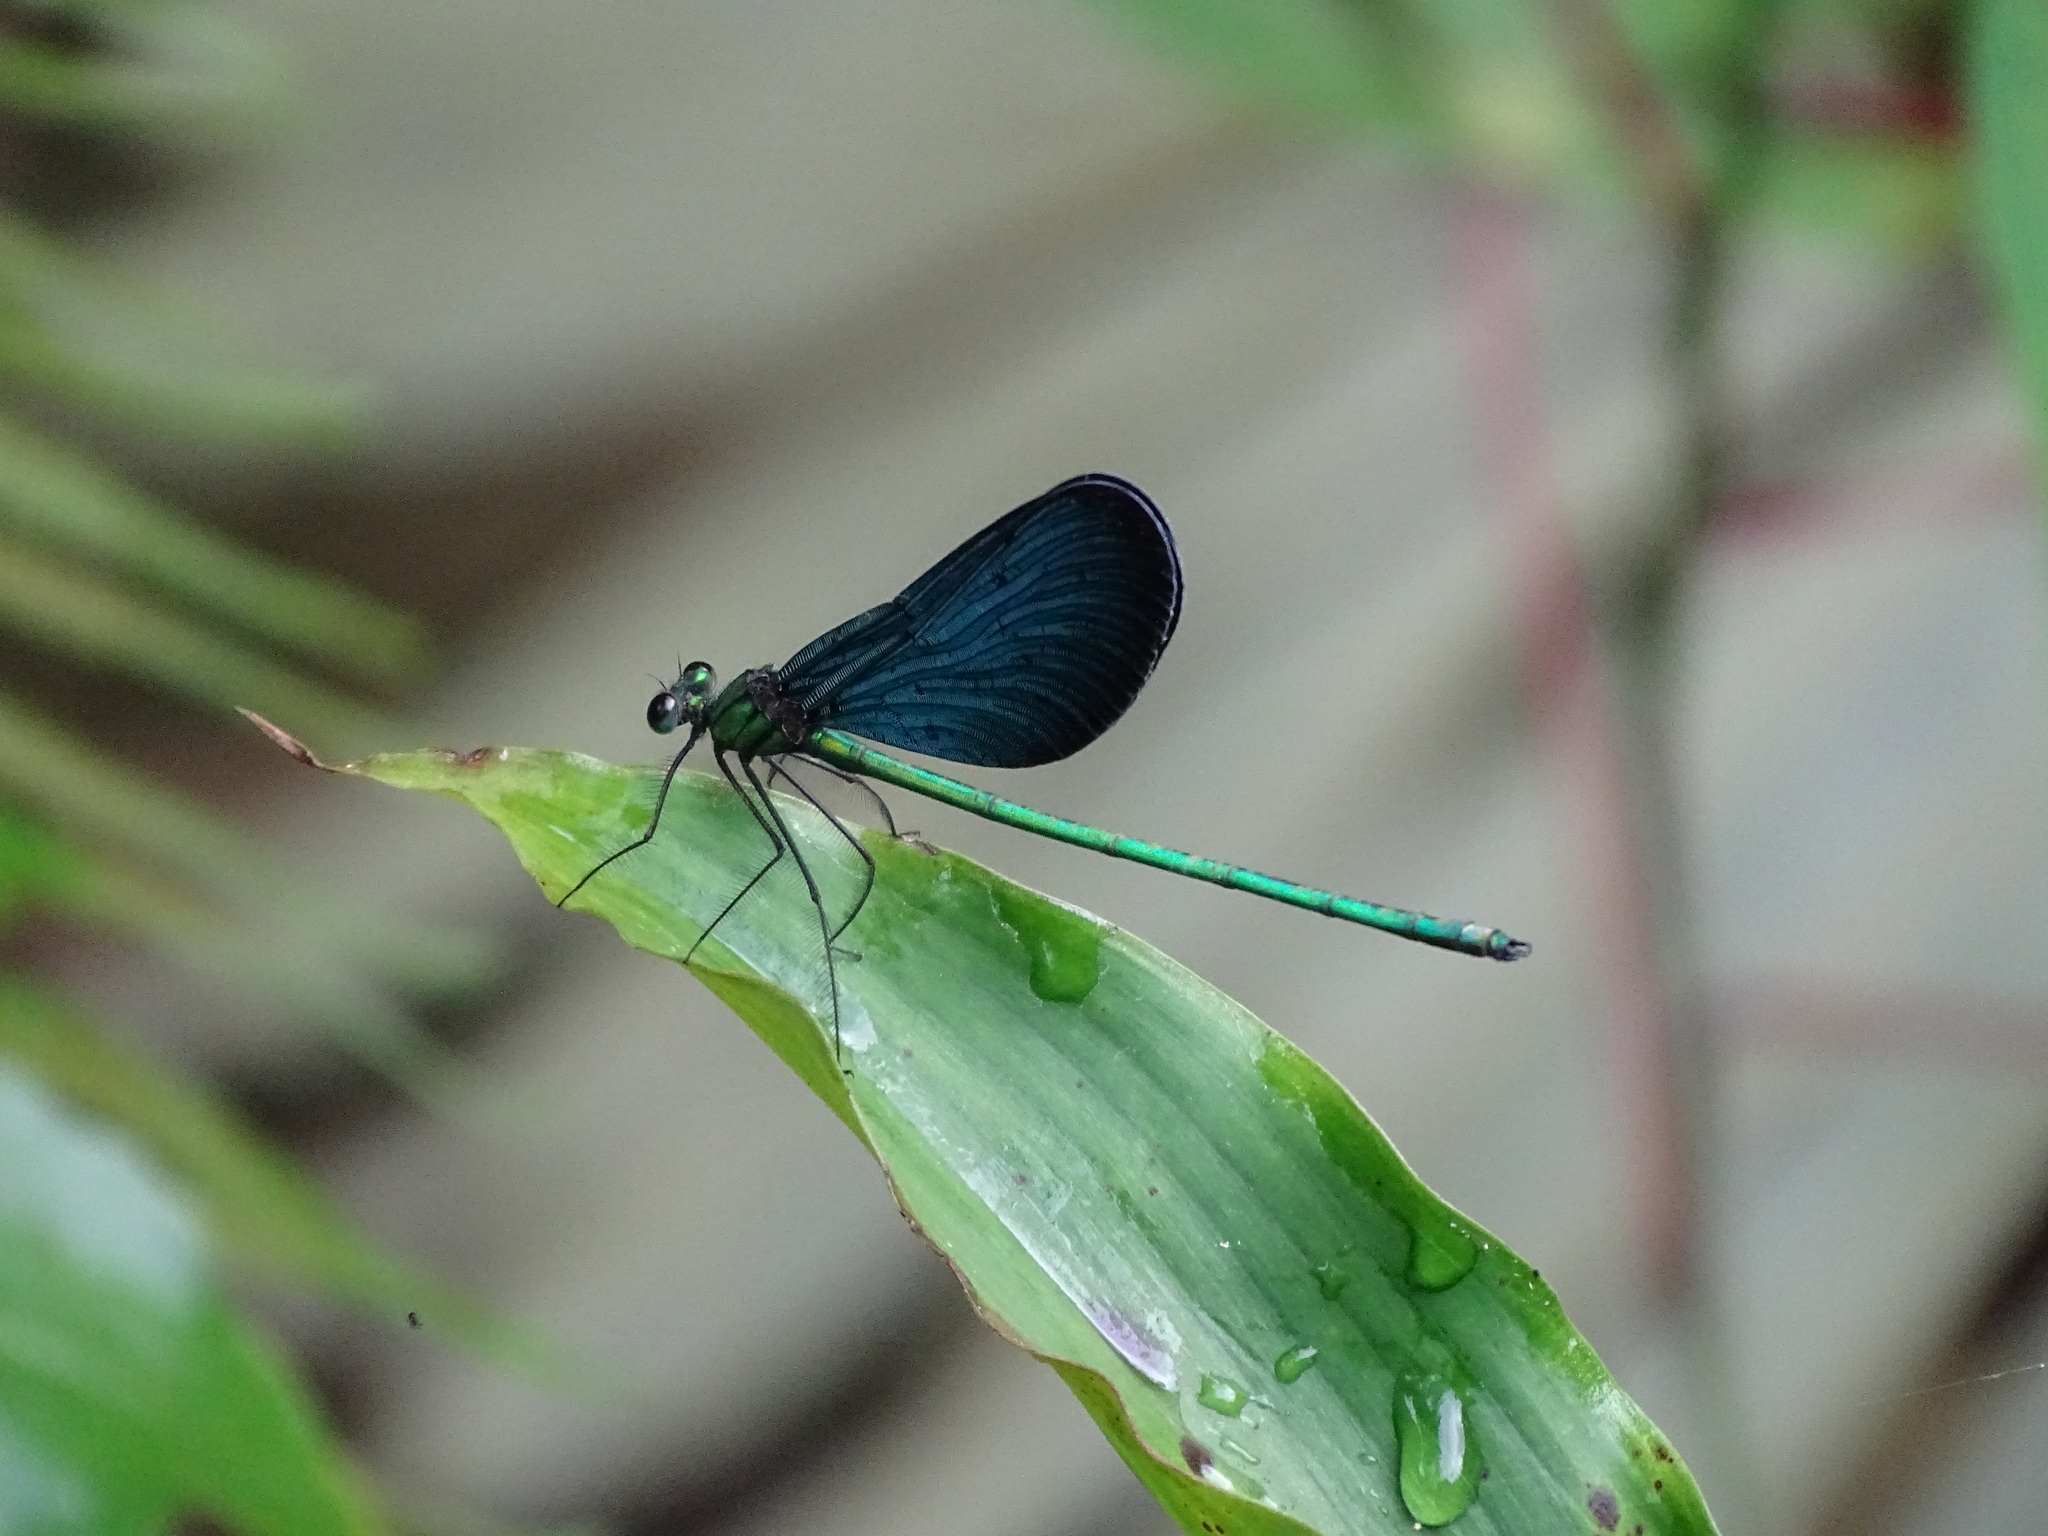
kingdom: Animalia
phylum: Arthropoda
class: Insecta
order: Odonata
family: Calopterygidae
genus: Matrona
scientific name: Matrona cyanoptera
